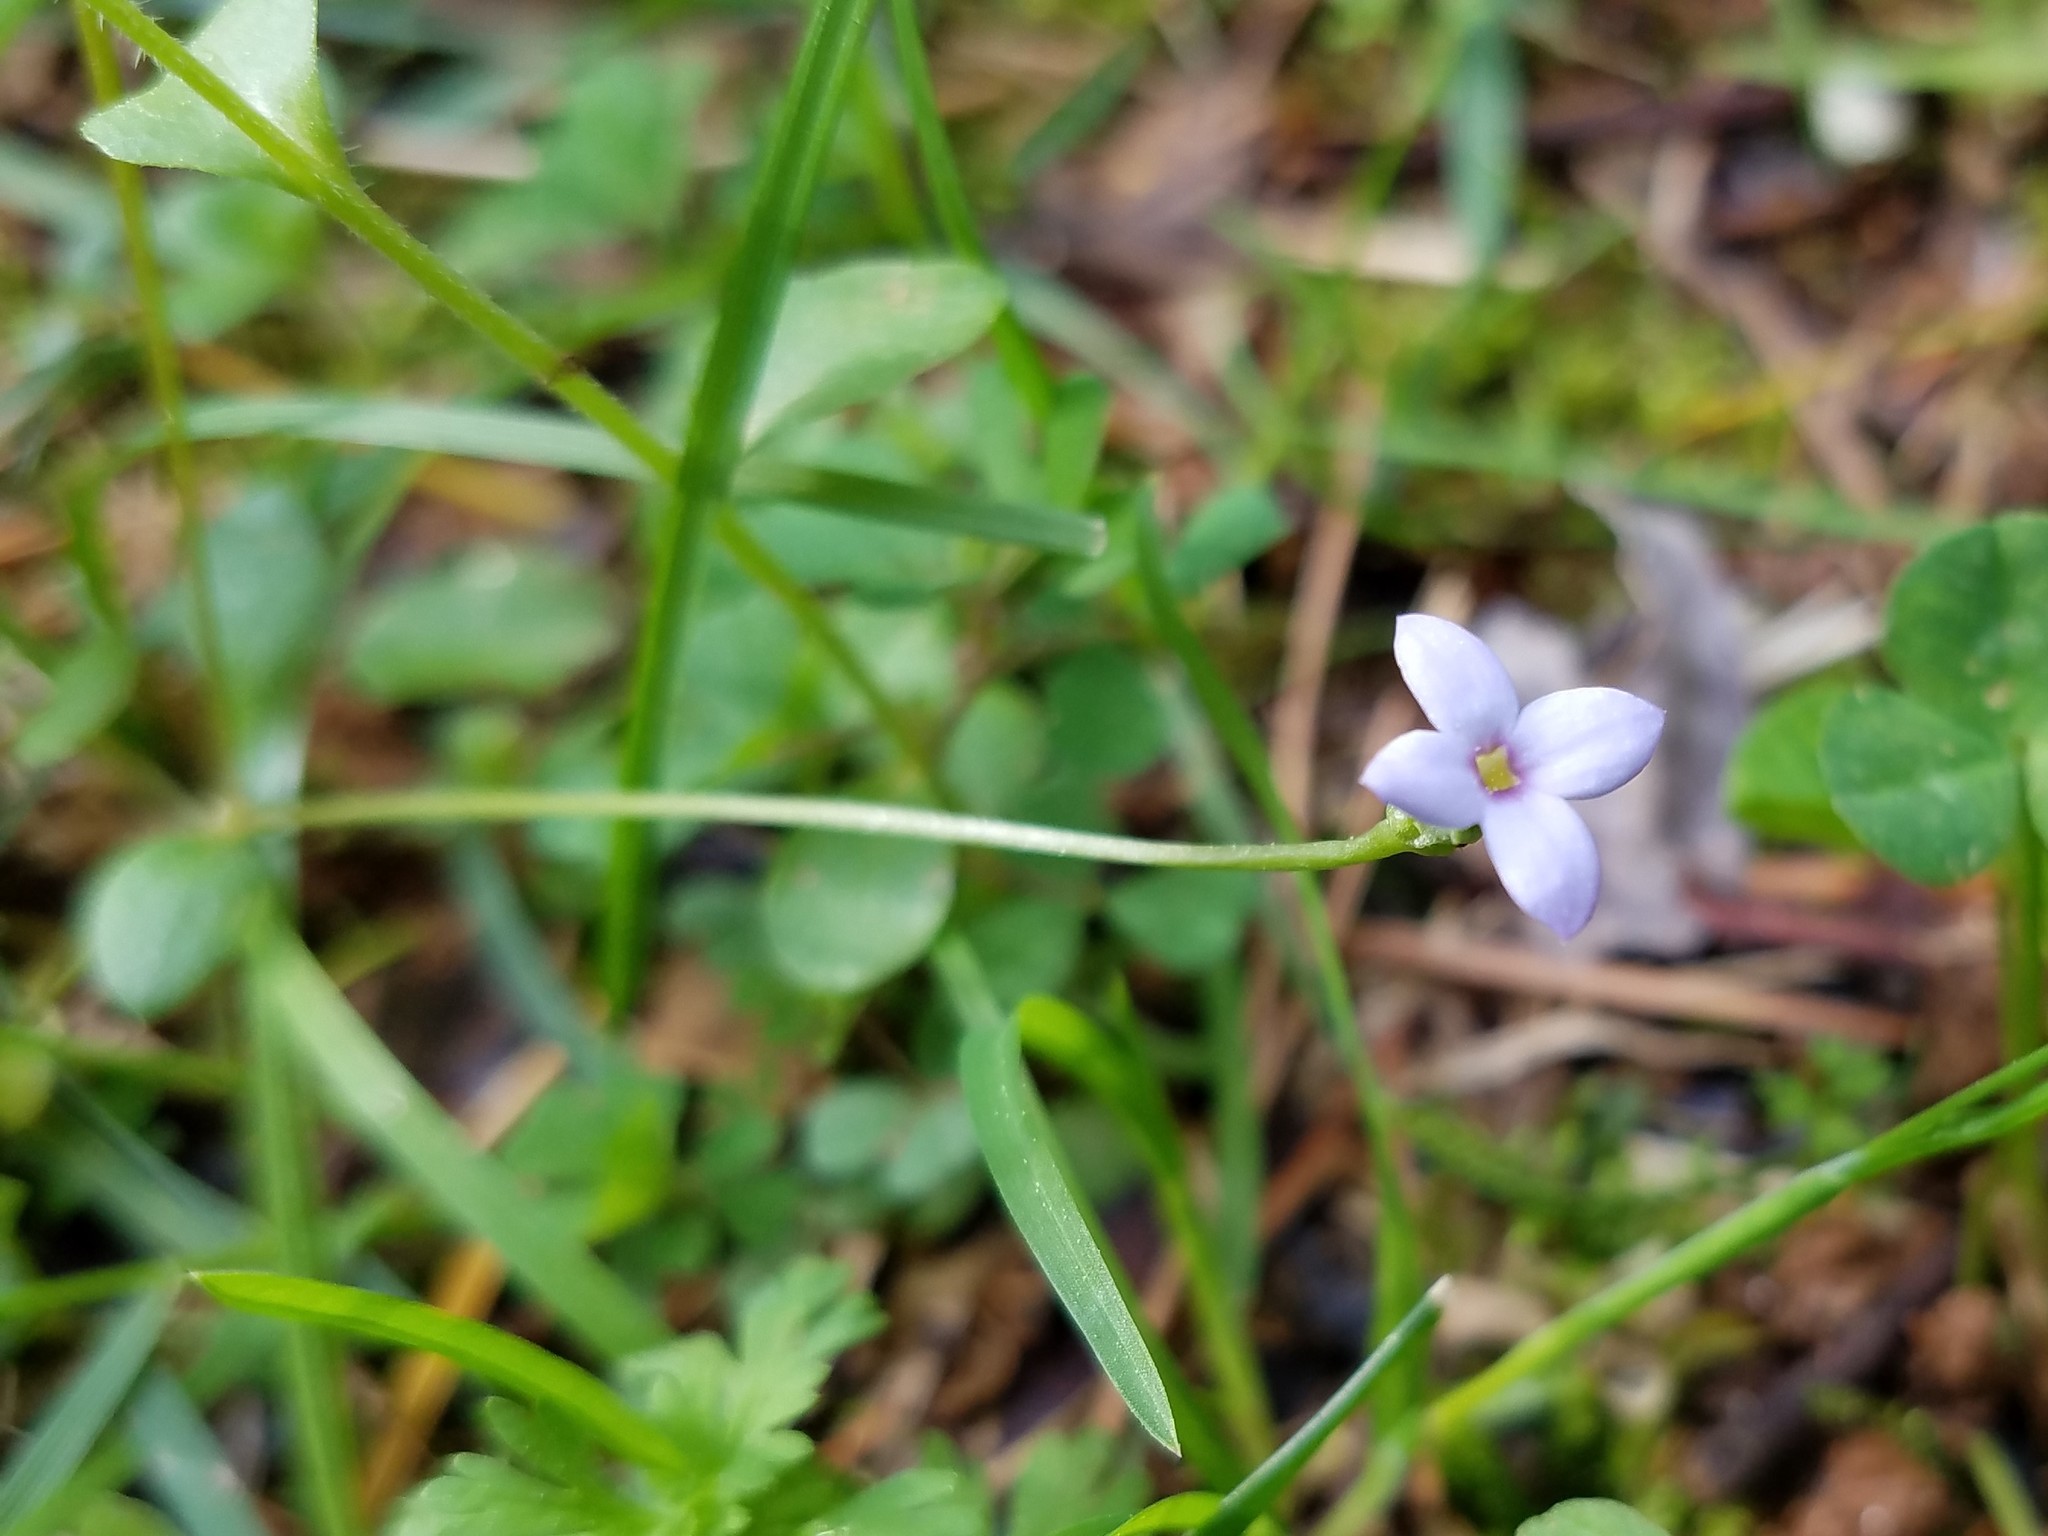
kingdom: Plantae
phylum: Tracheophyta
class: Magnoliopsida
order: Gentianales
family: Rubiaceae
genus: Houstonia
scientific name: Houstonia pusilla
